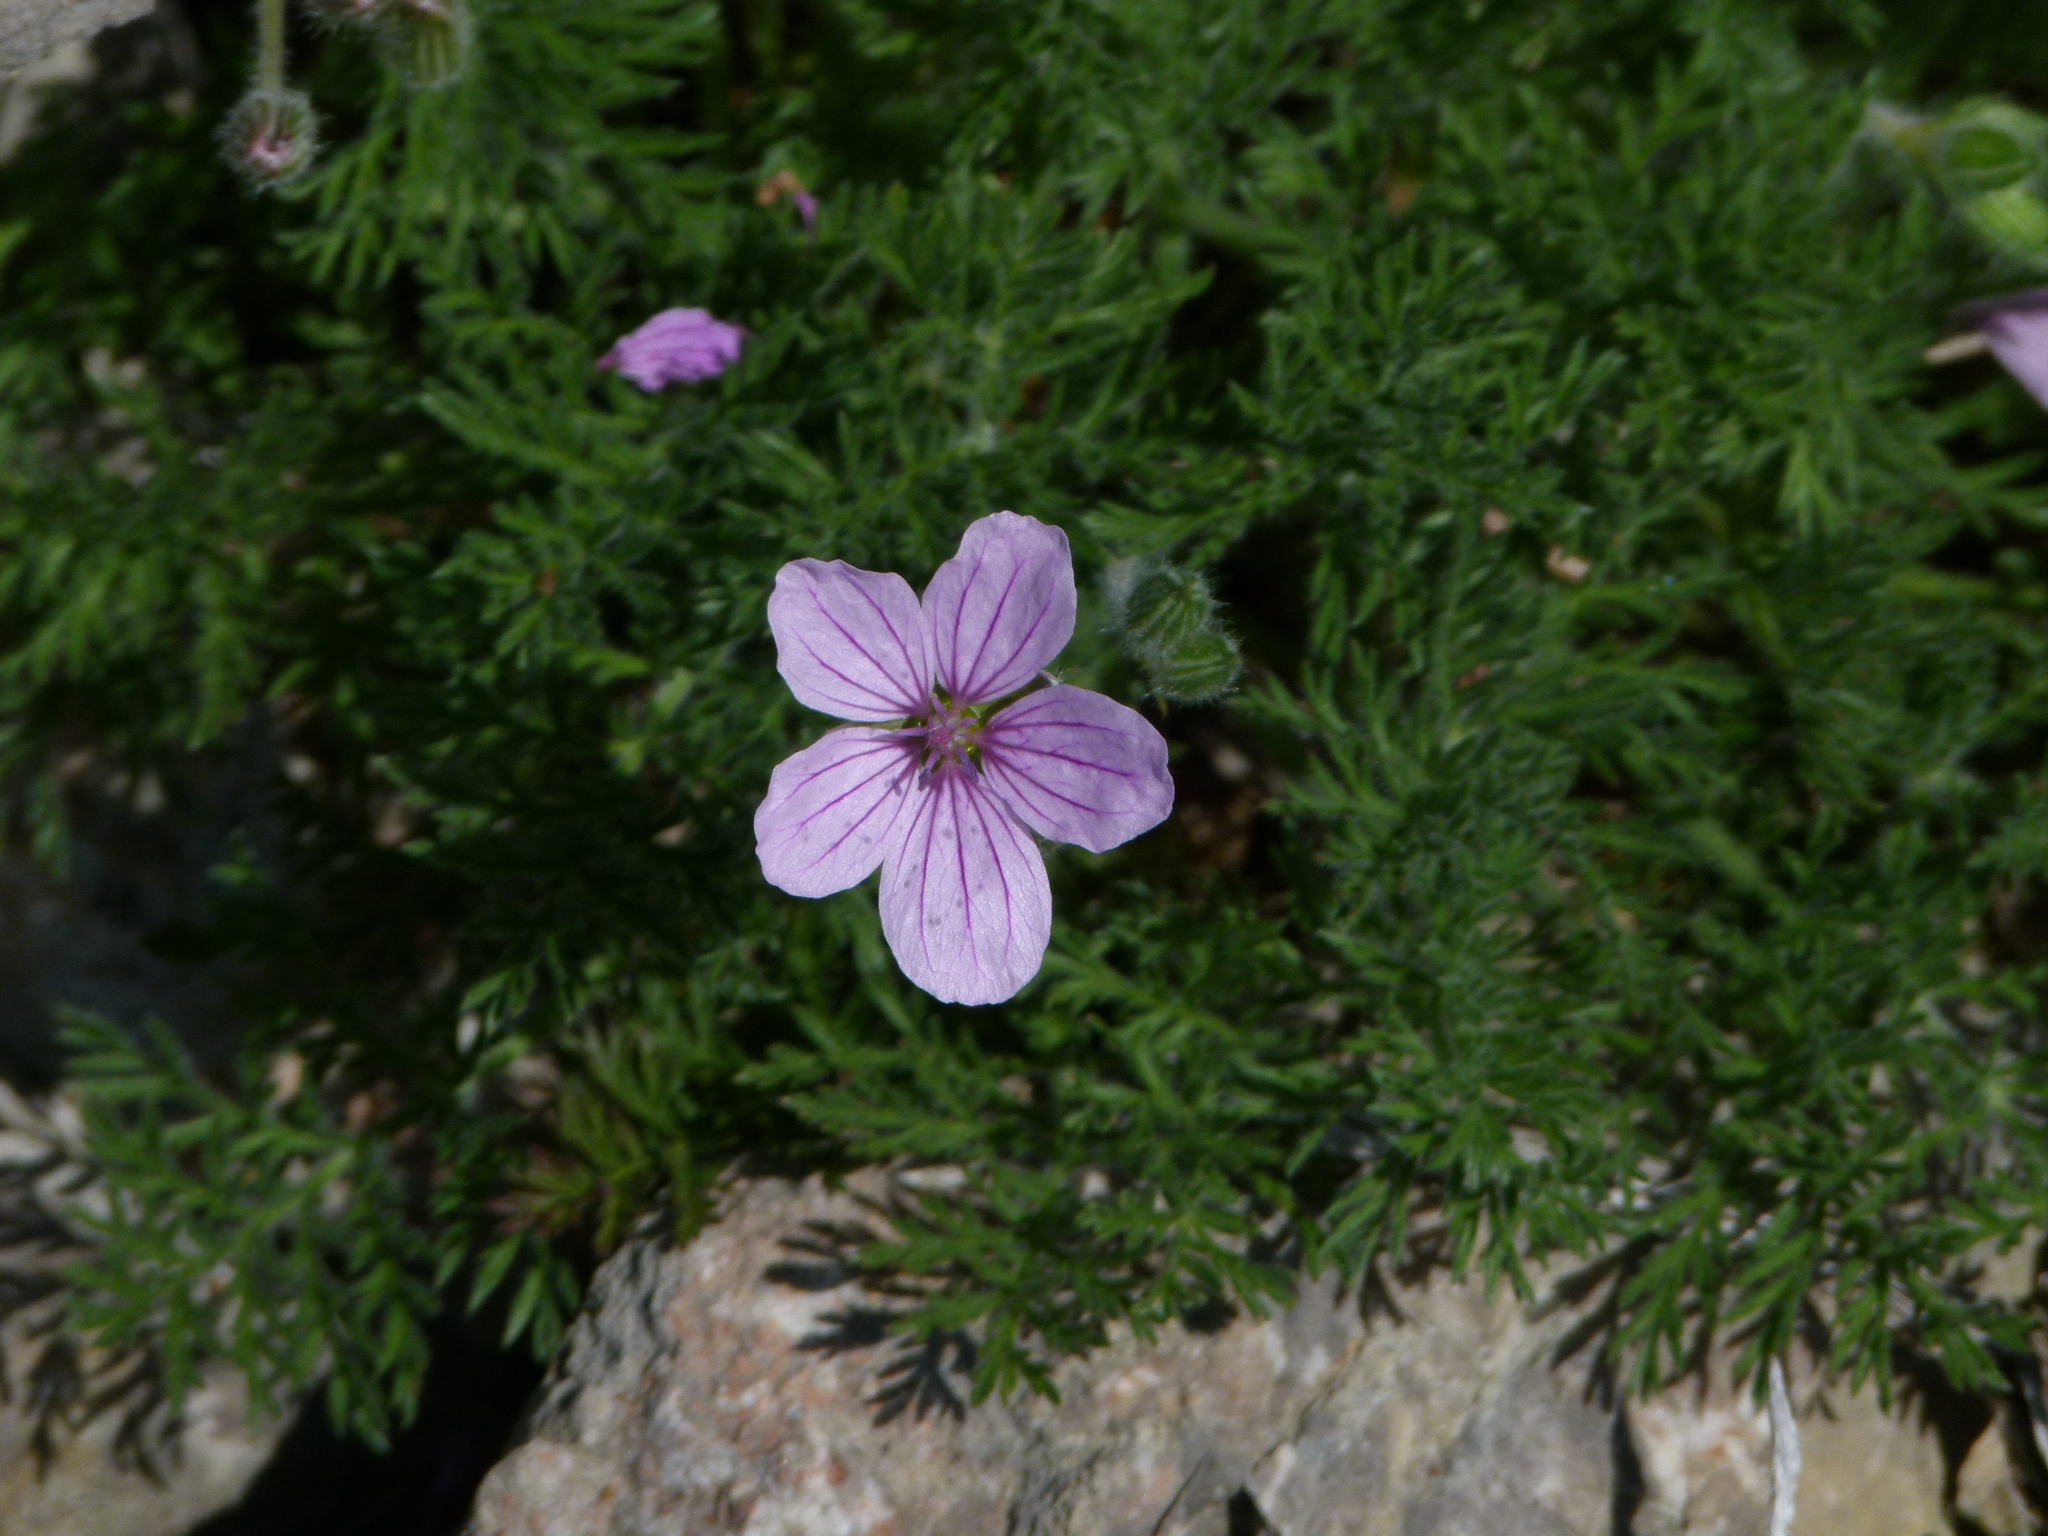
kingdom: Plantae
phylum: Tracheophyta
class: Magnoliopsida
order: Geraniales
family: Geraniaceae
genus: Erodium
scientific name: Erodium foetidum
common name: Rock stork's-bill
